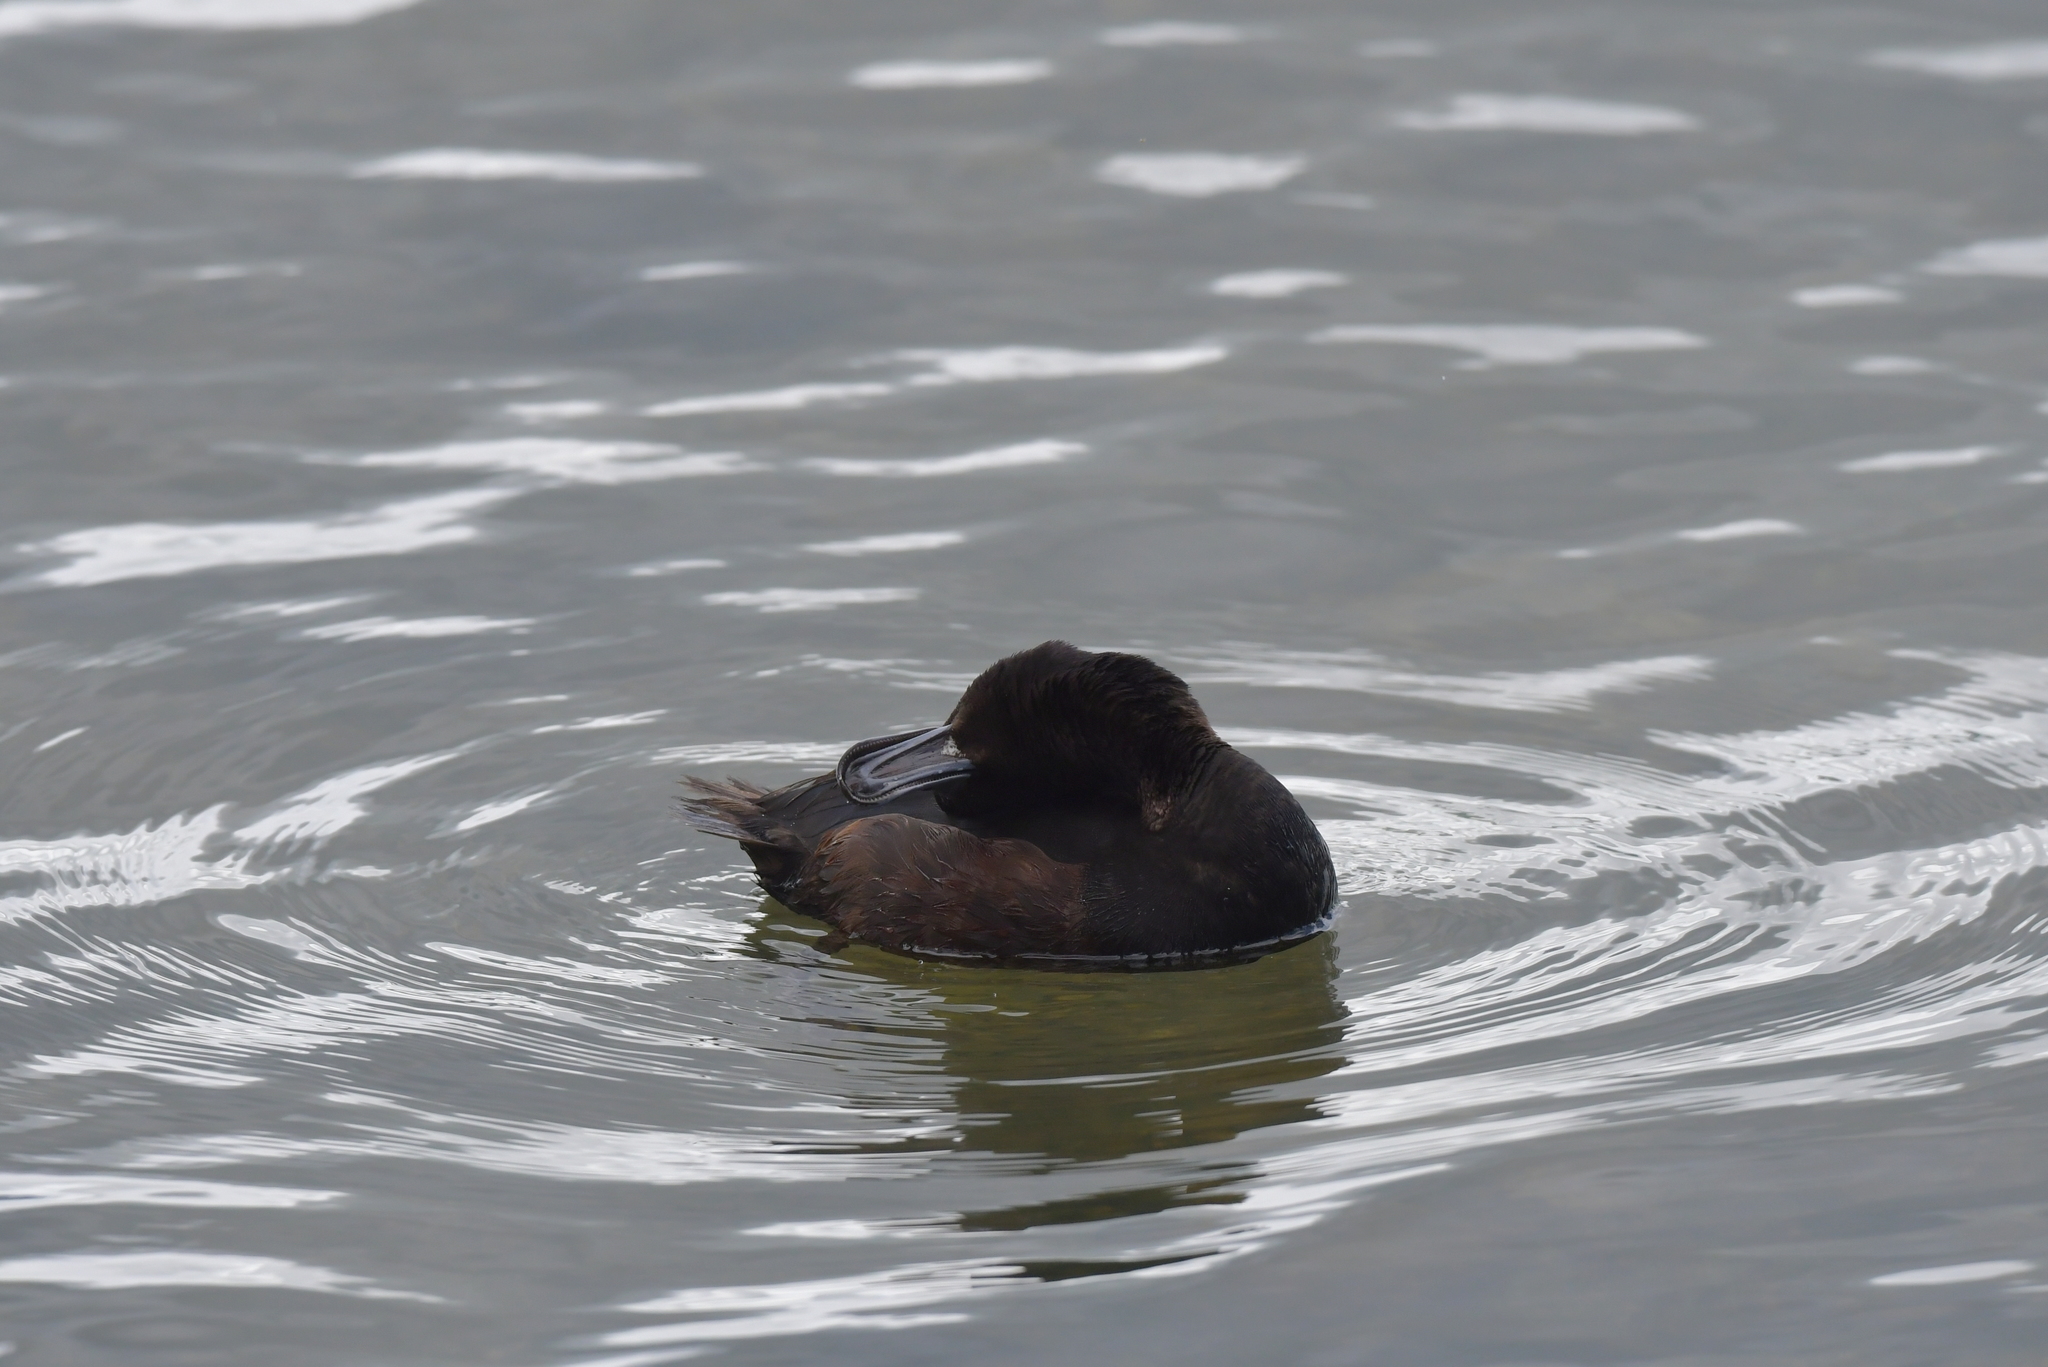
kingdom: Animalia
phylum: Chordata
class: Aves
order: Anseriformes
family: Anatidae
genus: Aythya
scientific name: Aythya novaeseelandiae
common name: New zealand scaup
